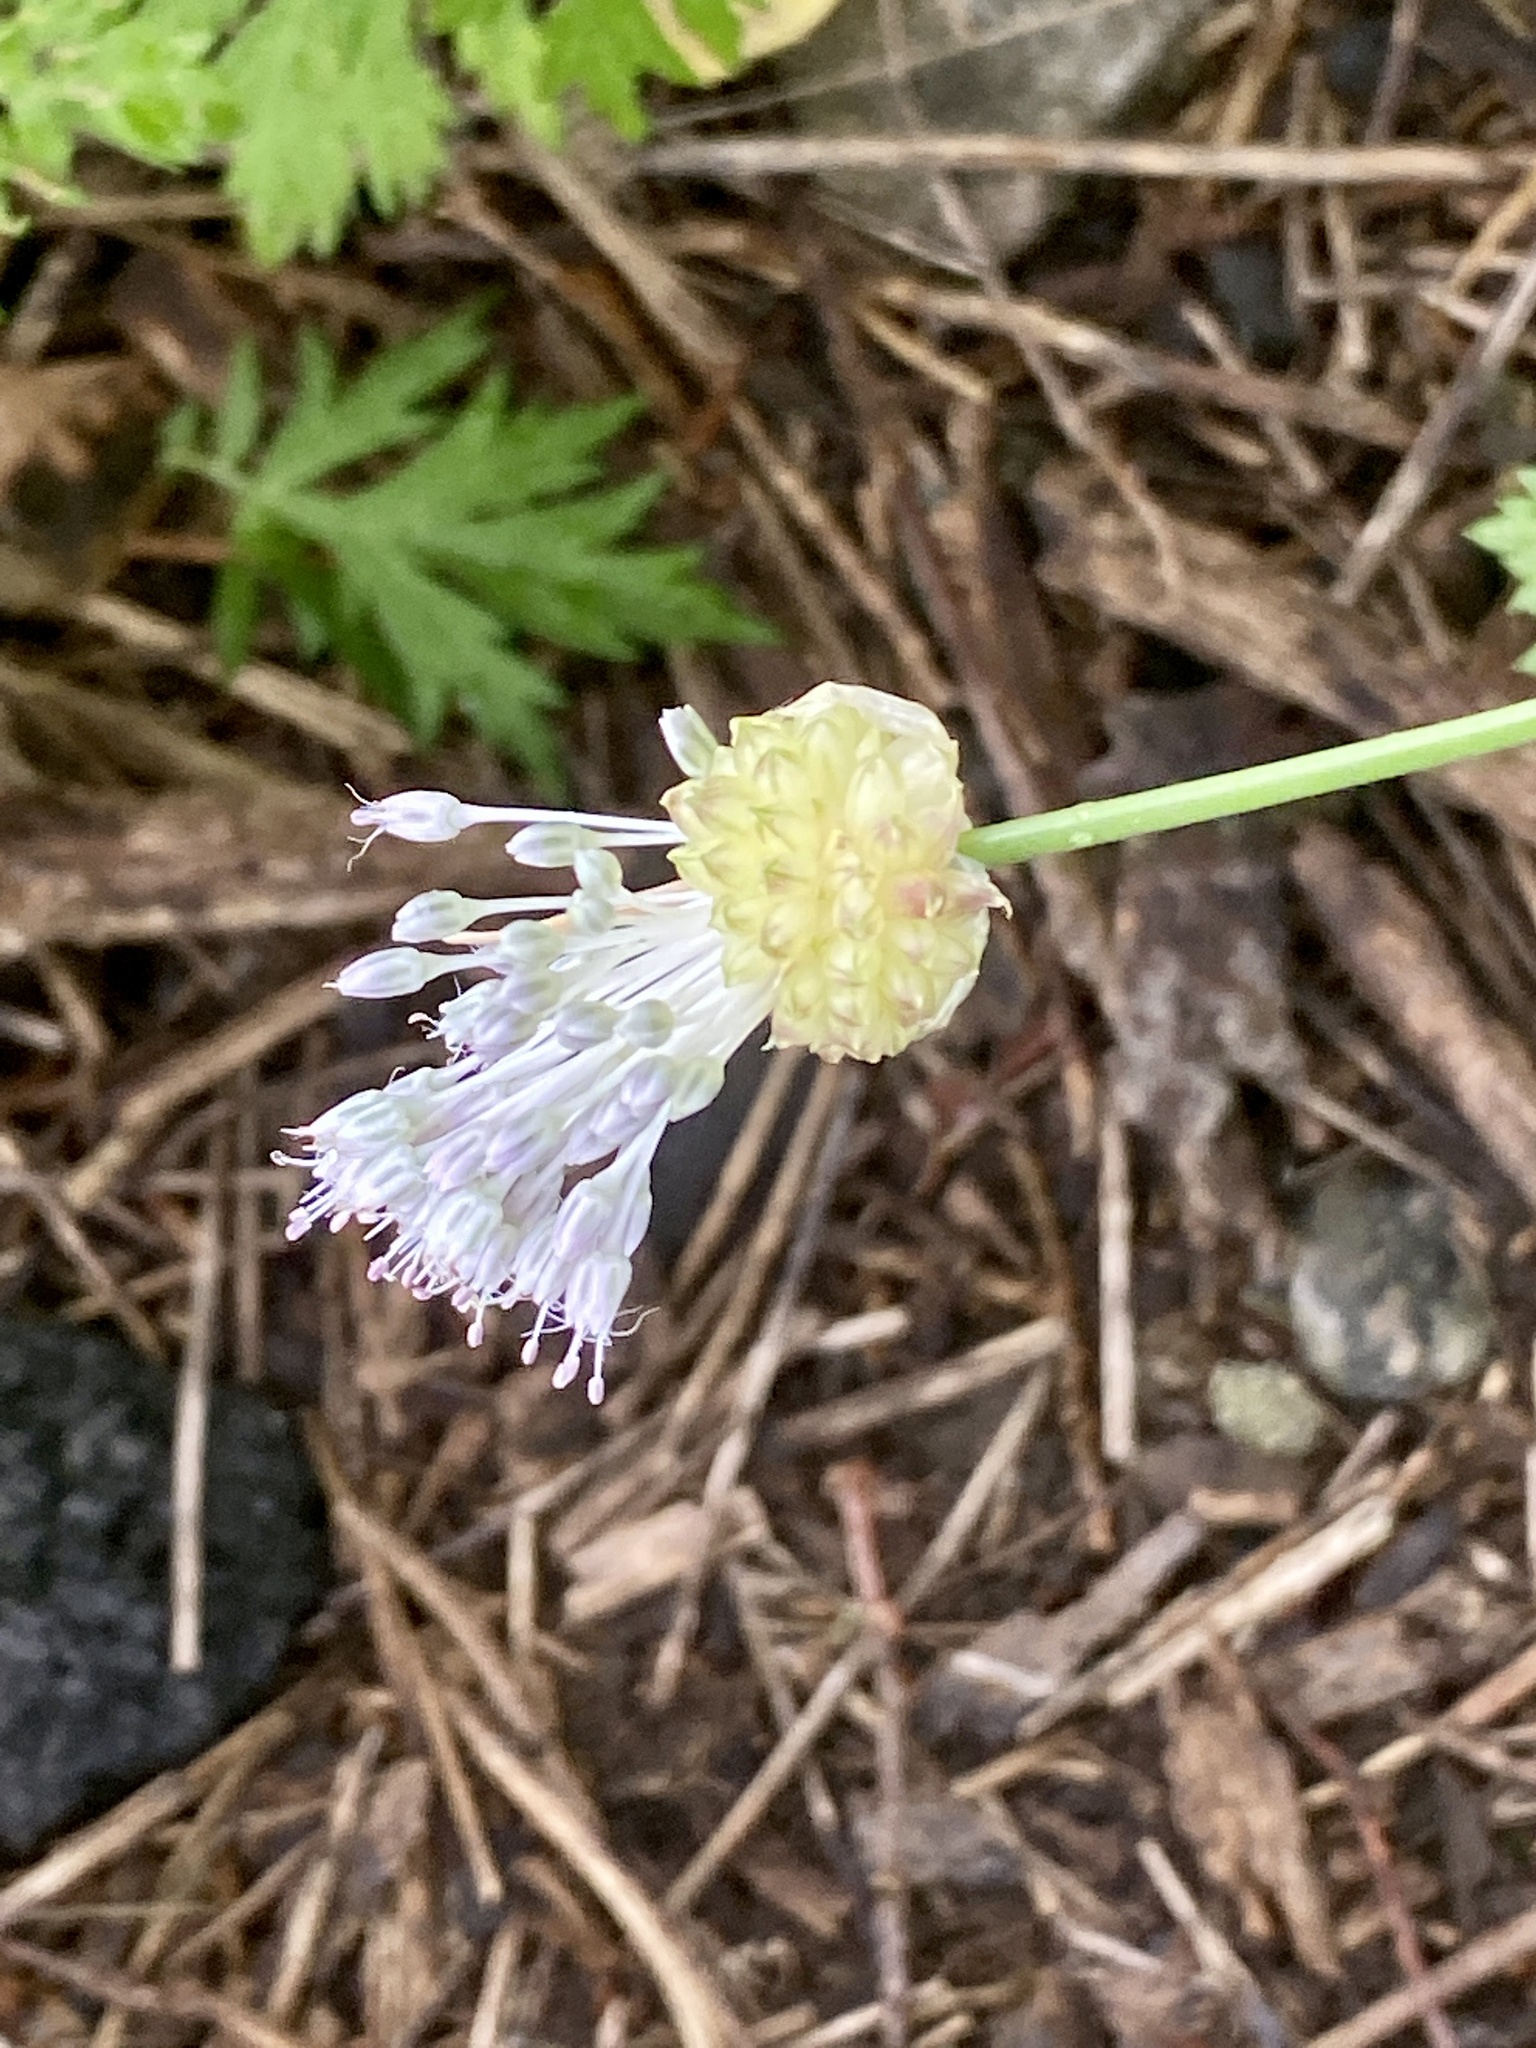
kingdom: Plantae
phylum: Tracheophyta
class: Liliopsida
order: Asparagales
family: Amaryllidaceae
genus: Allium
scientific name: Allium vineale
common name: Crow garlic
